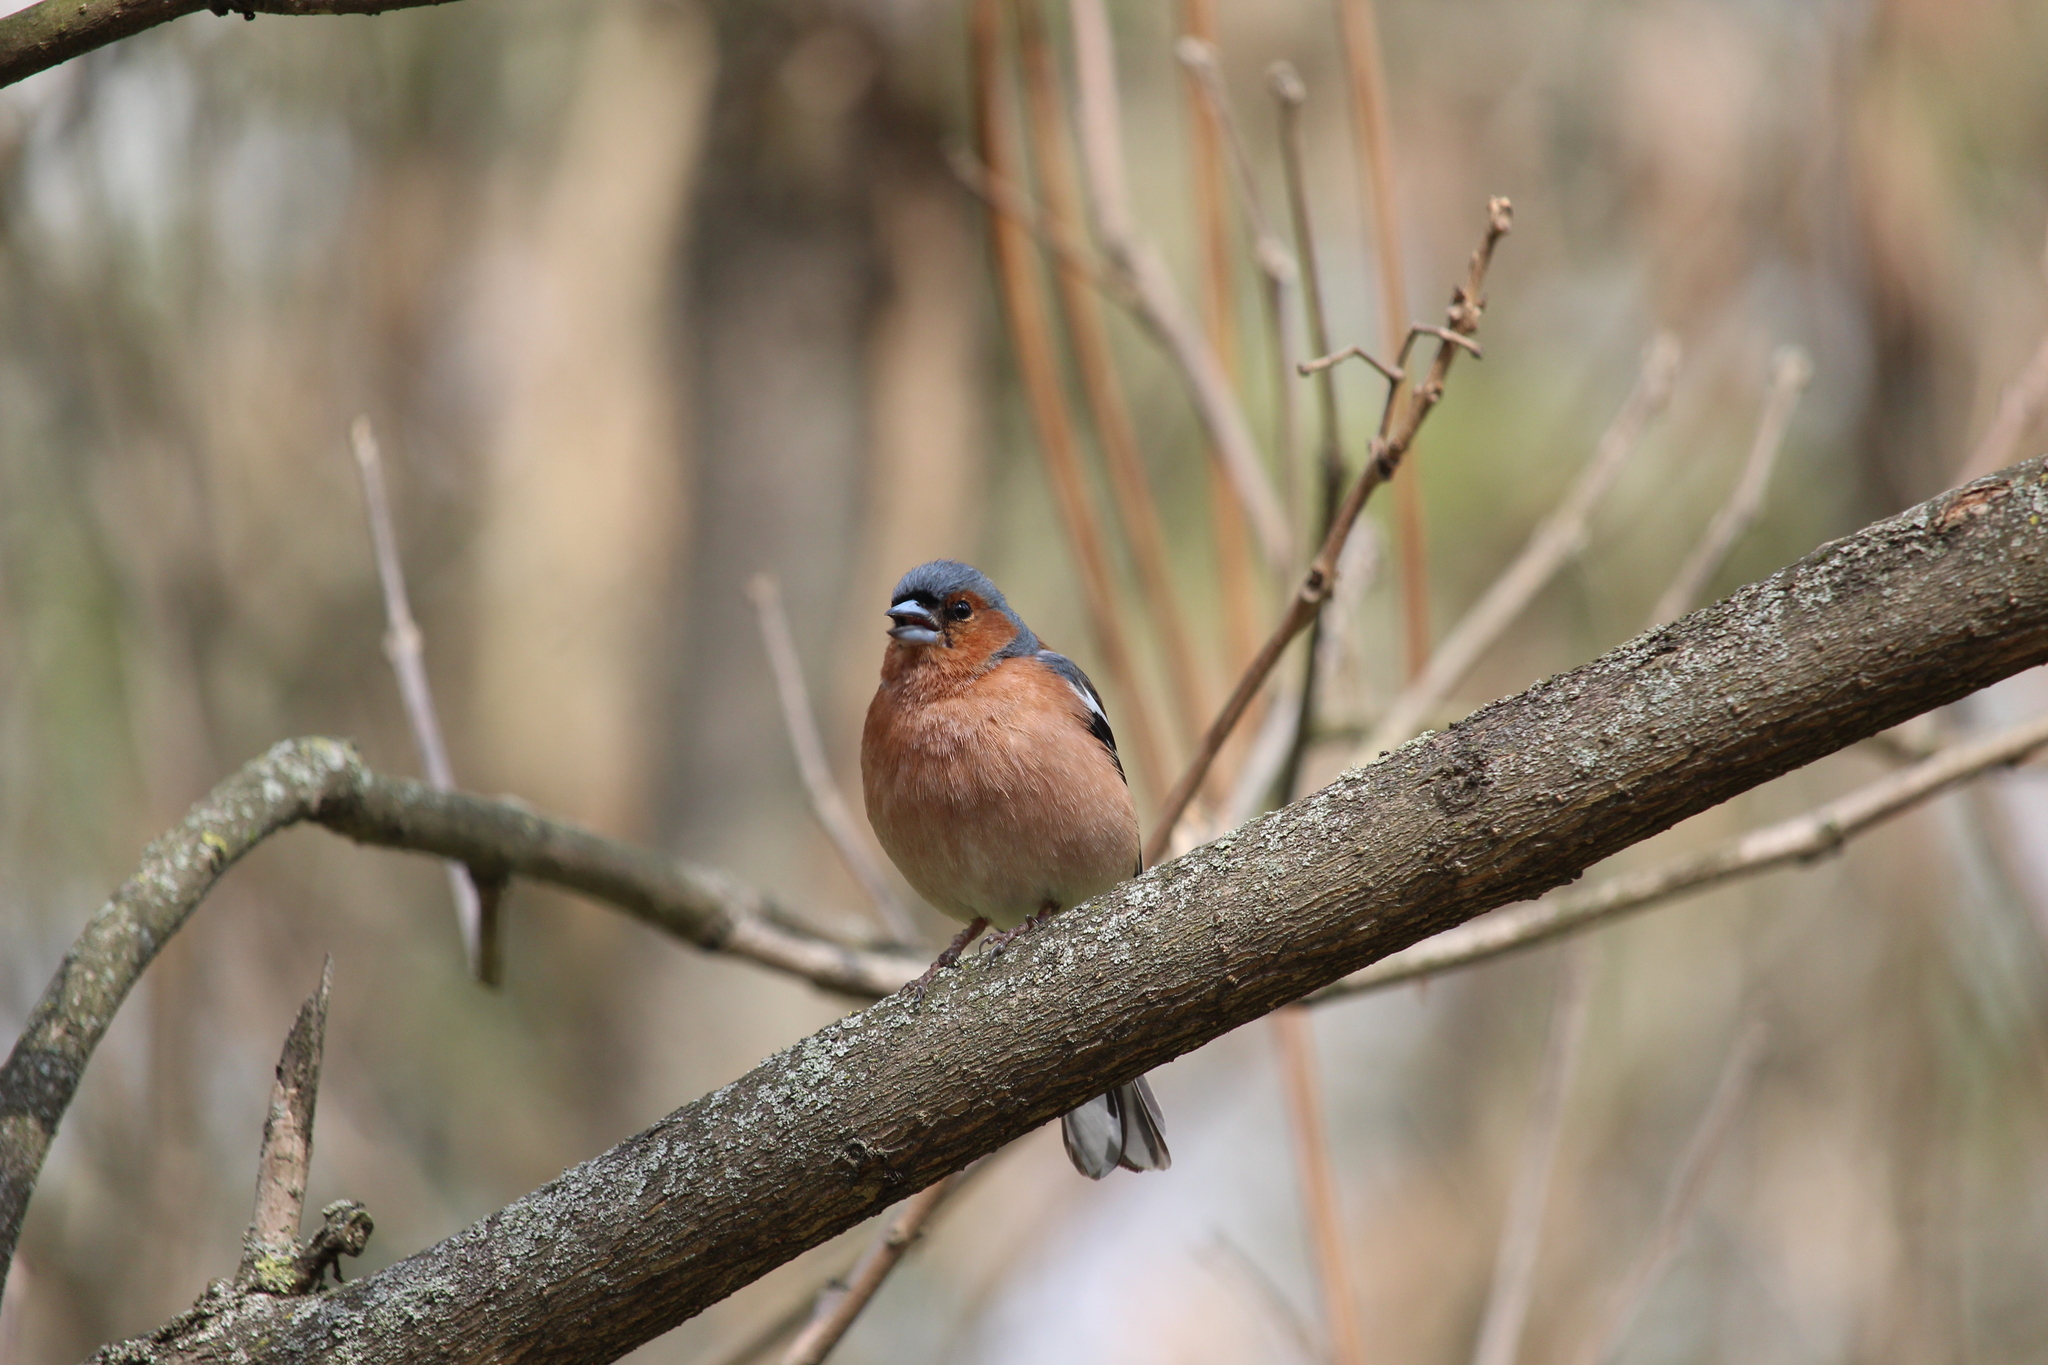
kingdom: Animalia
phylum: Chordata
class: Aves
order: Passeriformes
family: Fringillidae
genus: Fringilla
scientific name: Fringilla coelebs
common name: Common chaffinch
